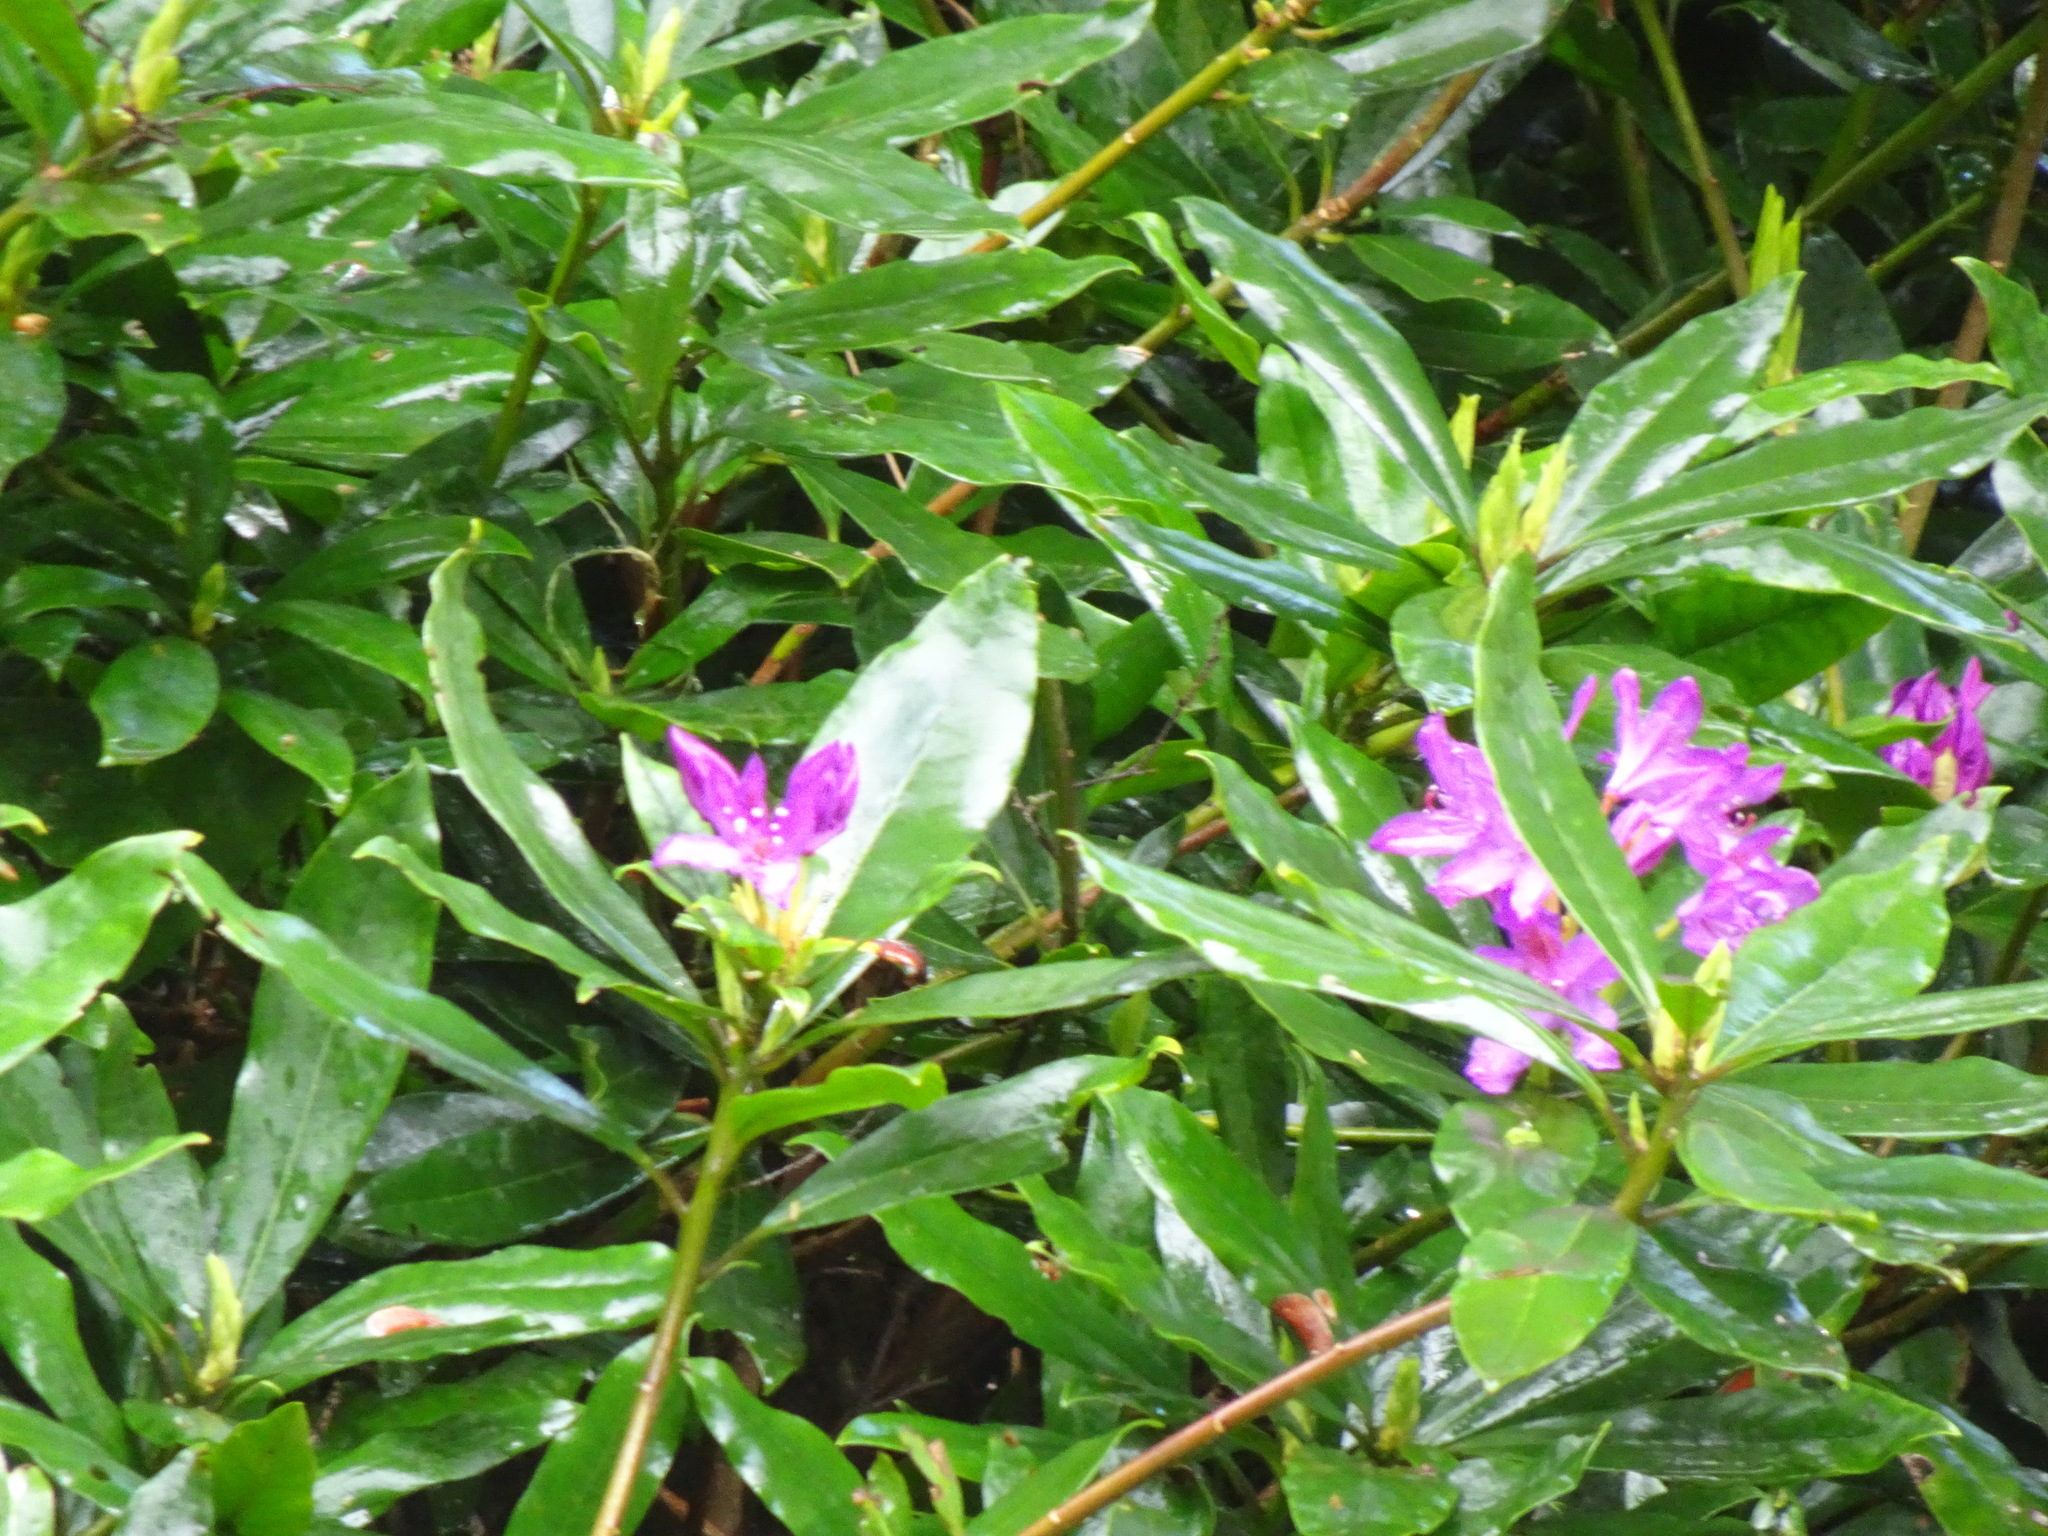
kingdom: Plantae
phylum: Tracheophyta
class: Magnoliopsida
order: Ericales
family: Ericaceae
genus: Rhododendron
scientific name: Rhododendron ponticum
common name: Rhododendron
